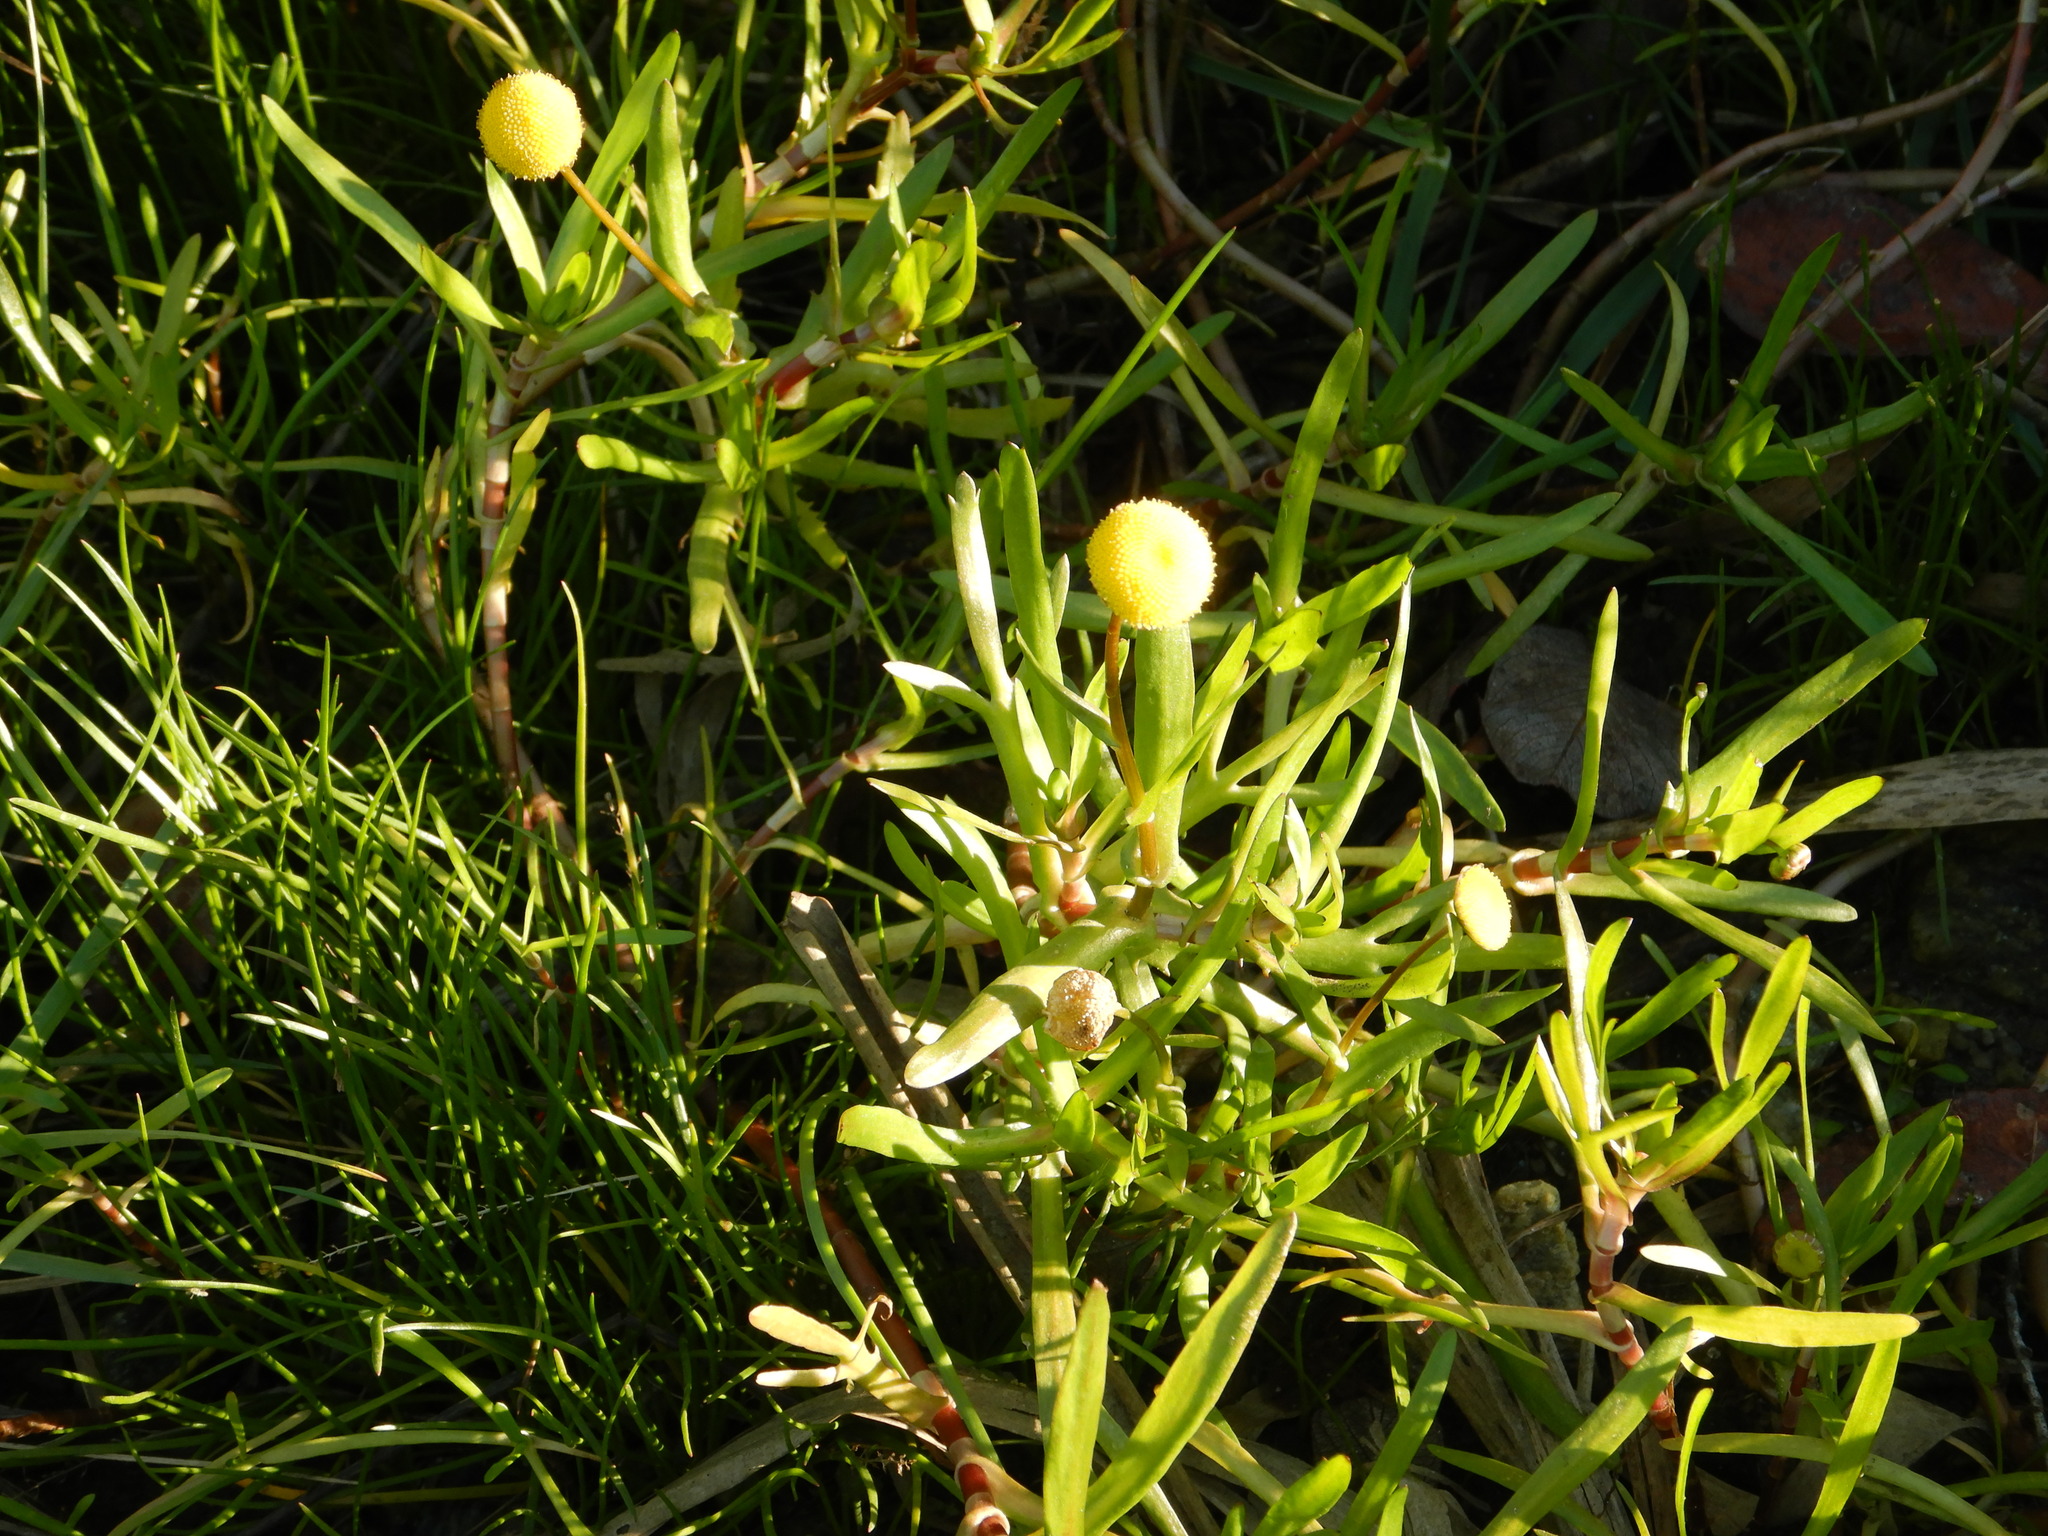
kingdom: Plantae
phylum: Tracheophyta
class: Magnoliopsida
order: Asterales
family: Asteraceae
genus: Cotula
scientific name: Cotula coronopifolia
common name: Buttonweed
